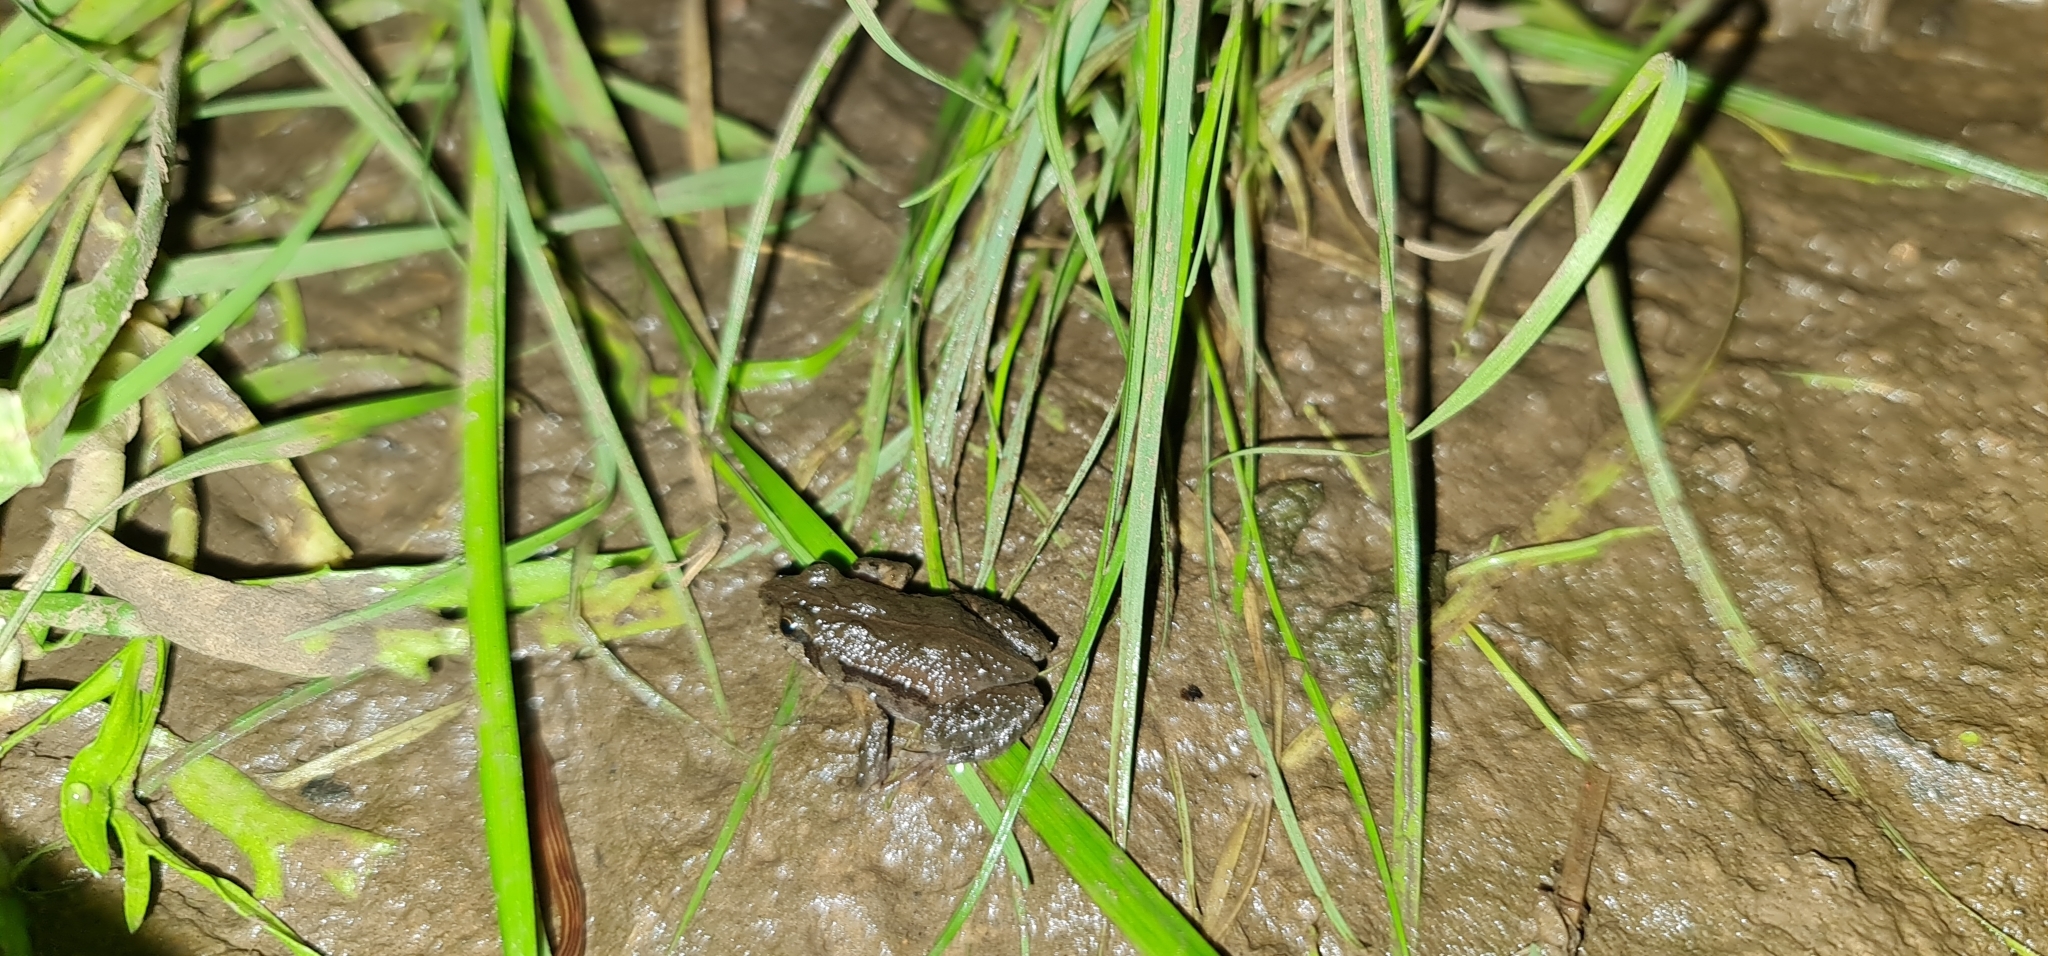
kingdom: Animalia
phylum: Chordata
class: Amphibia
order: Anura
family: Myobatrachidae
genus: Crinia
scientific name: Crinia signifera
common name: Brown froglet
